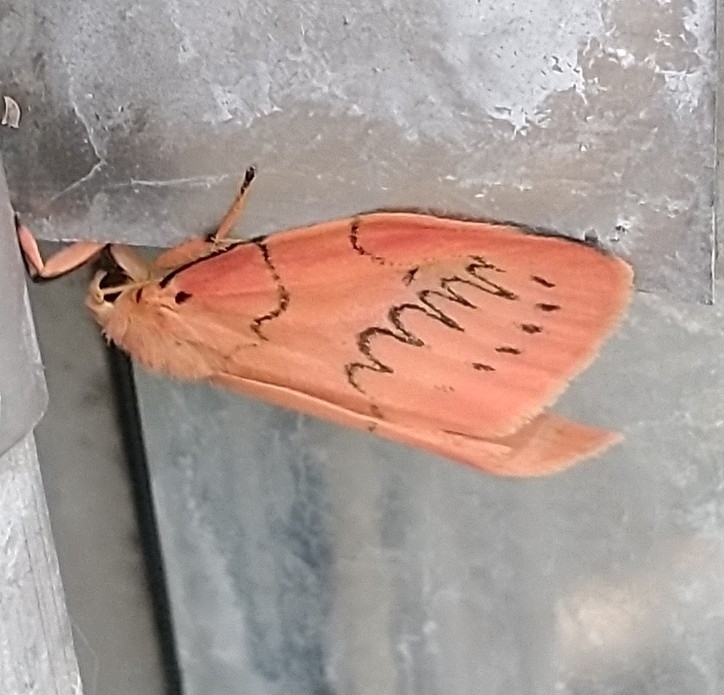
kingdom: Animalia
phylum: Arthropoda
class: Insecta
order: Lepidoptera
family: Erebidae
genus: Miltochrista
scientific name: Miltochrista miniata
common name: Rosy footman
